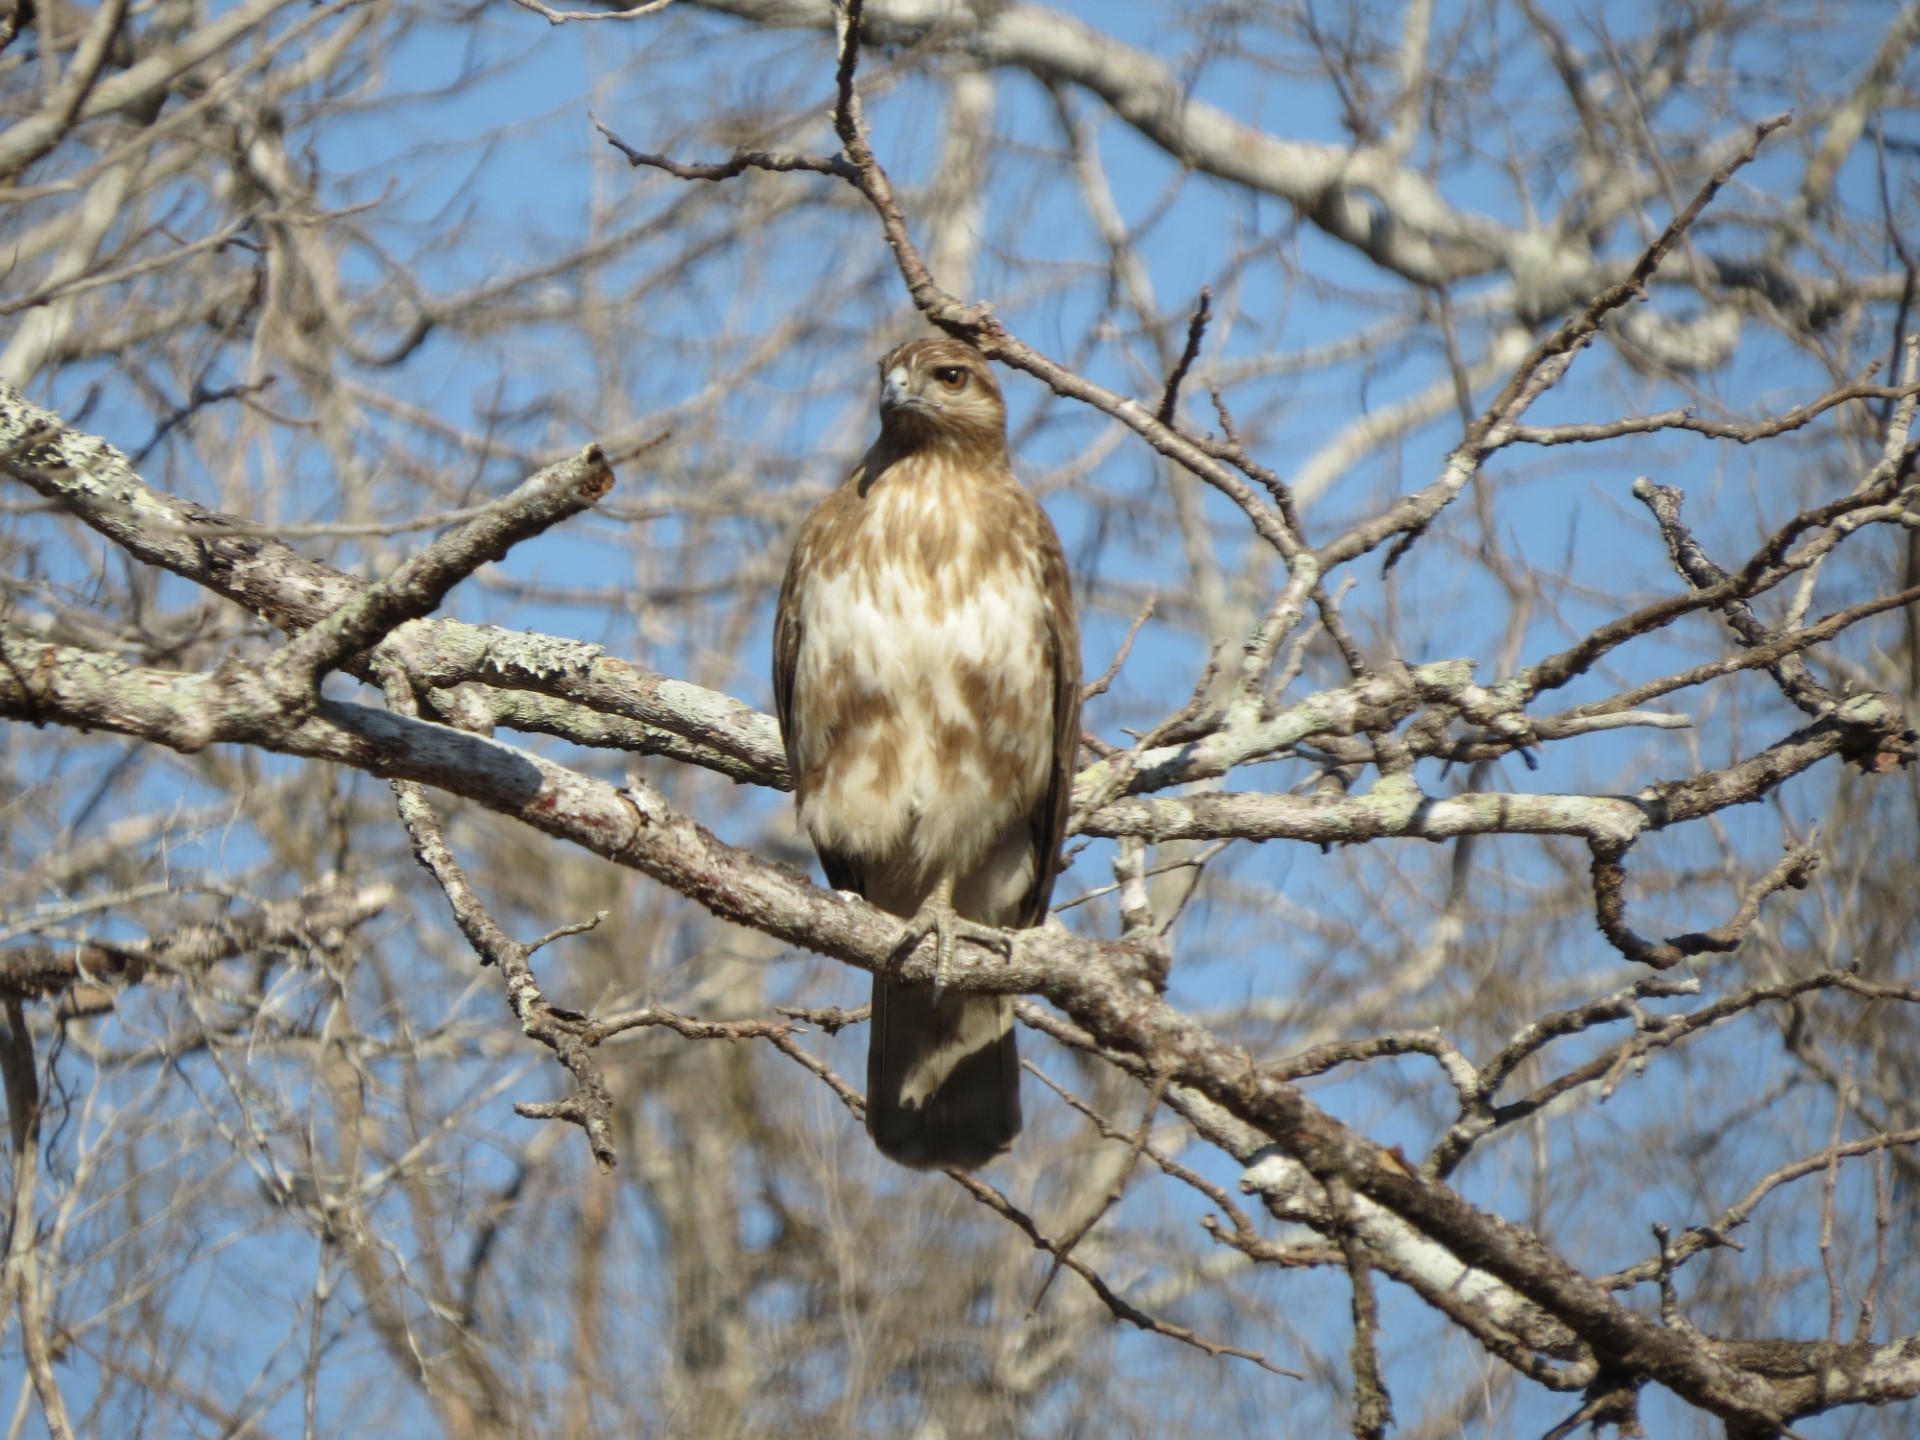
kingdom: Animalia
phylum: Chordata
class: Aves
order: Accipitriformes
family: Accipitridae
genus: Buteo
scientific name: Buteo brachypterus
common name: Madagascar buzzard
